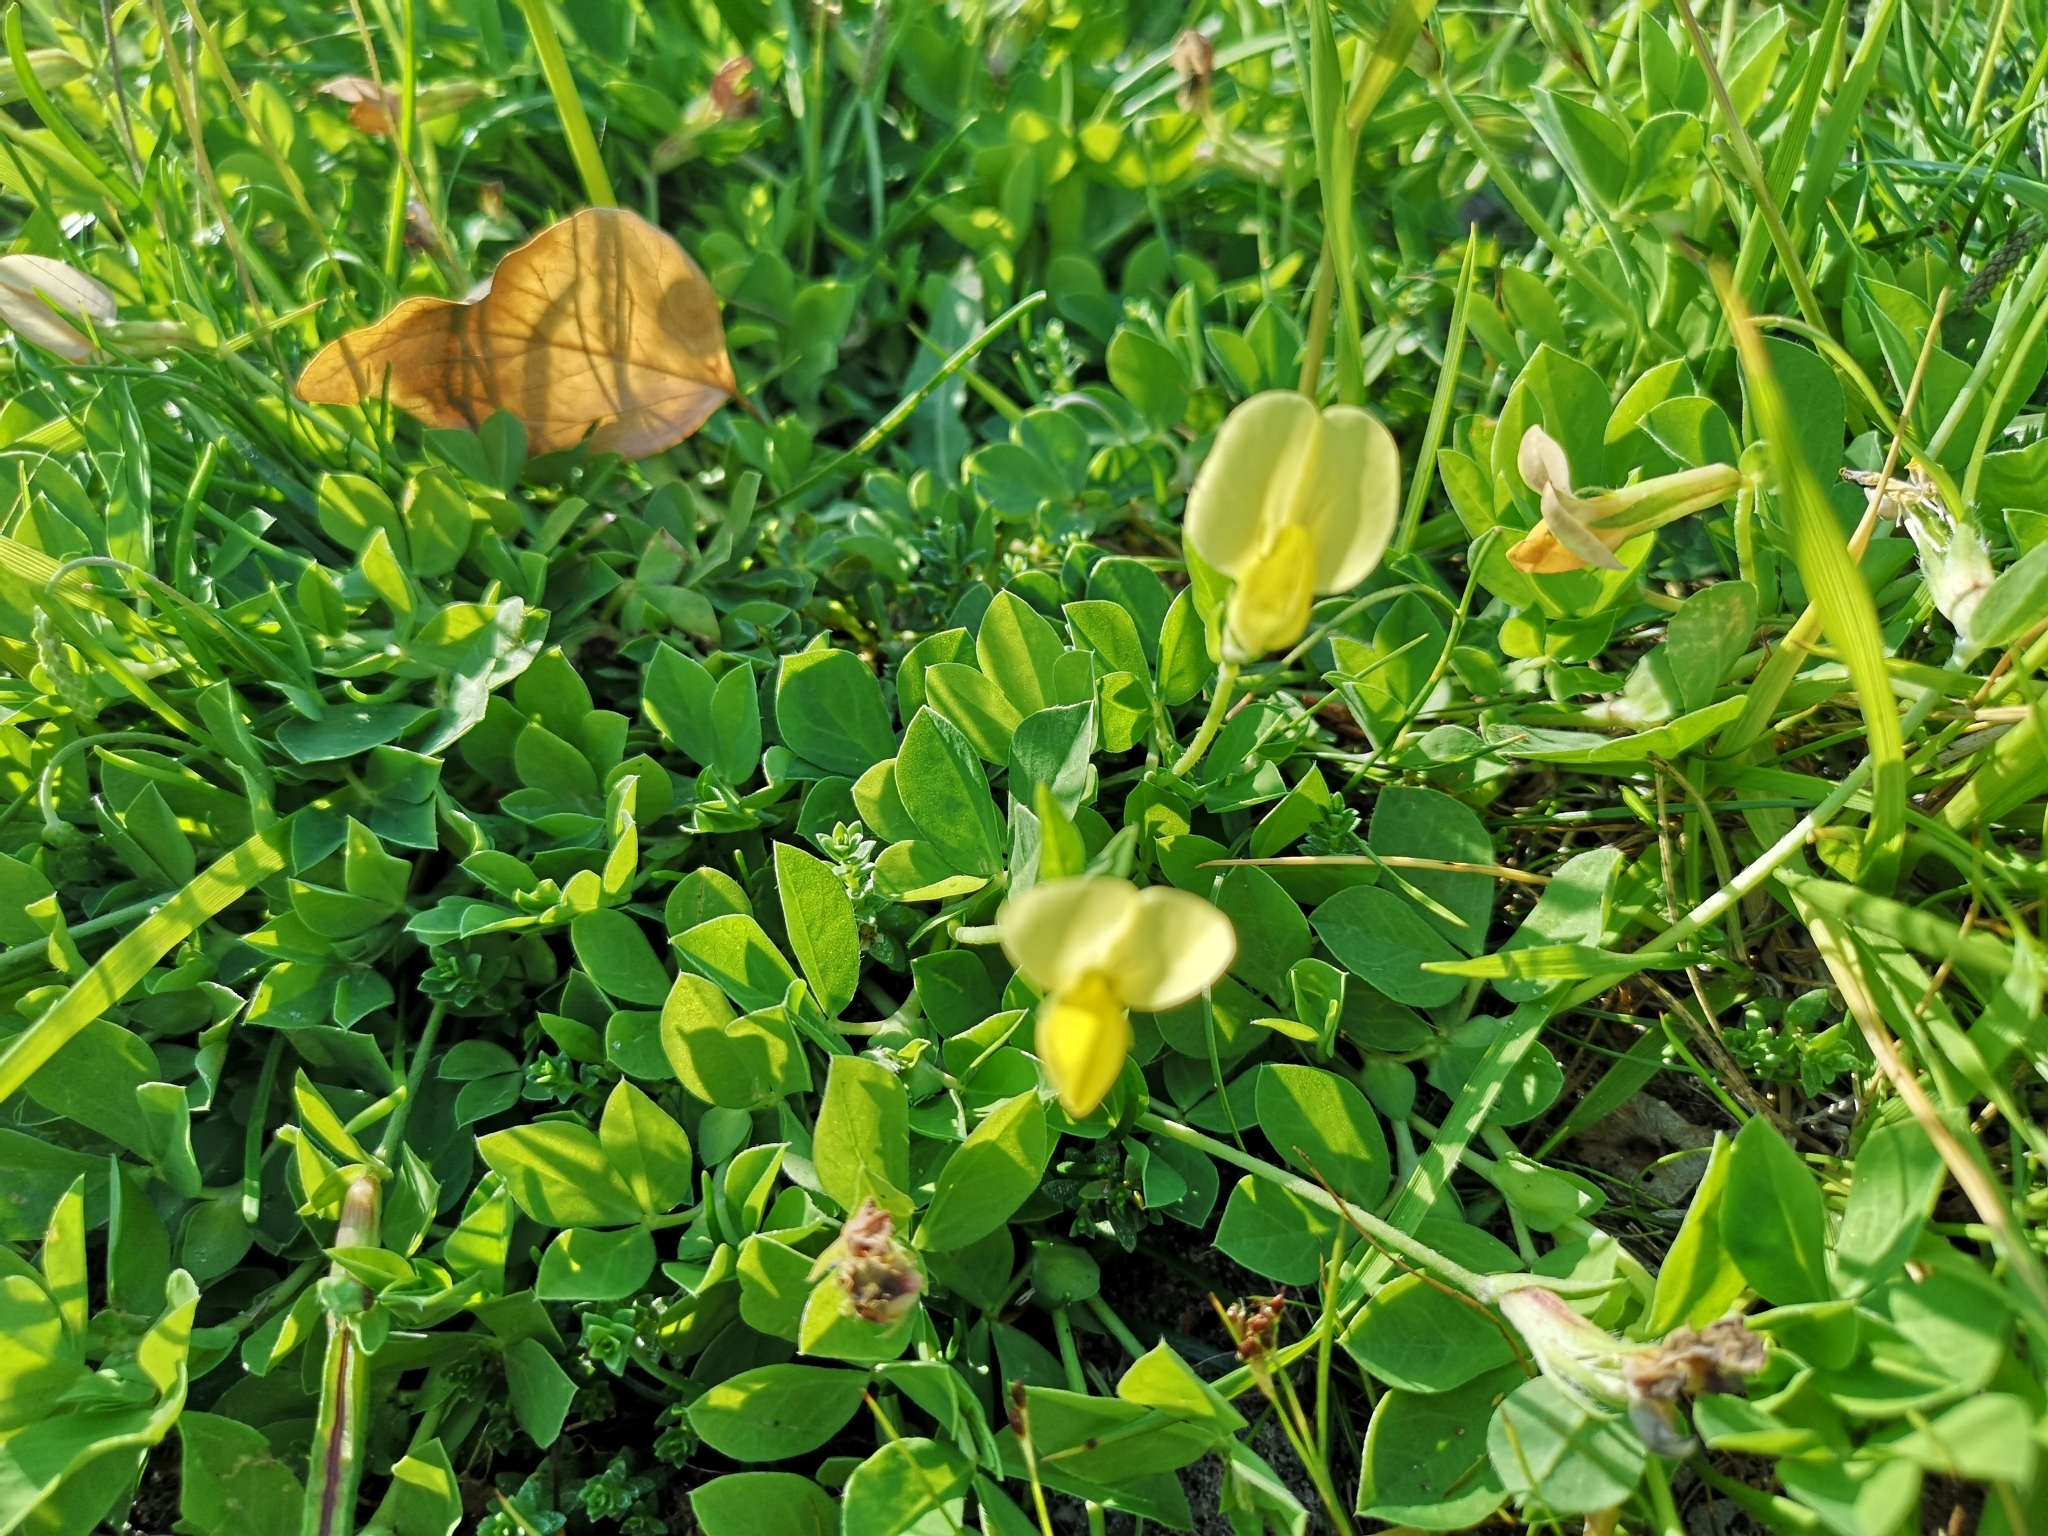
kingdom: Plantae
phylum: Tracheophyta
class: Magnoliopsida
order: Fabales
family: Fabaceae
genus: Lotus
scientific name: Lotus maritimus
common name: Dragon's-teeth
